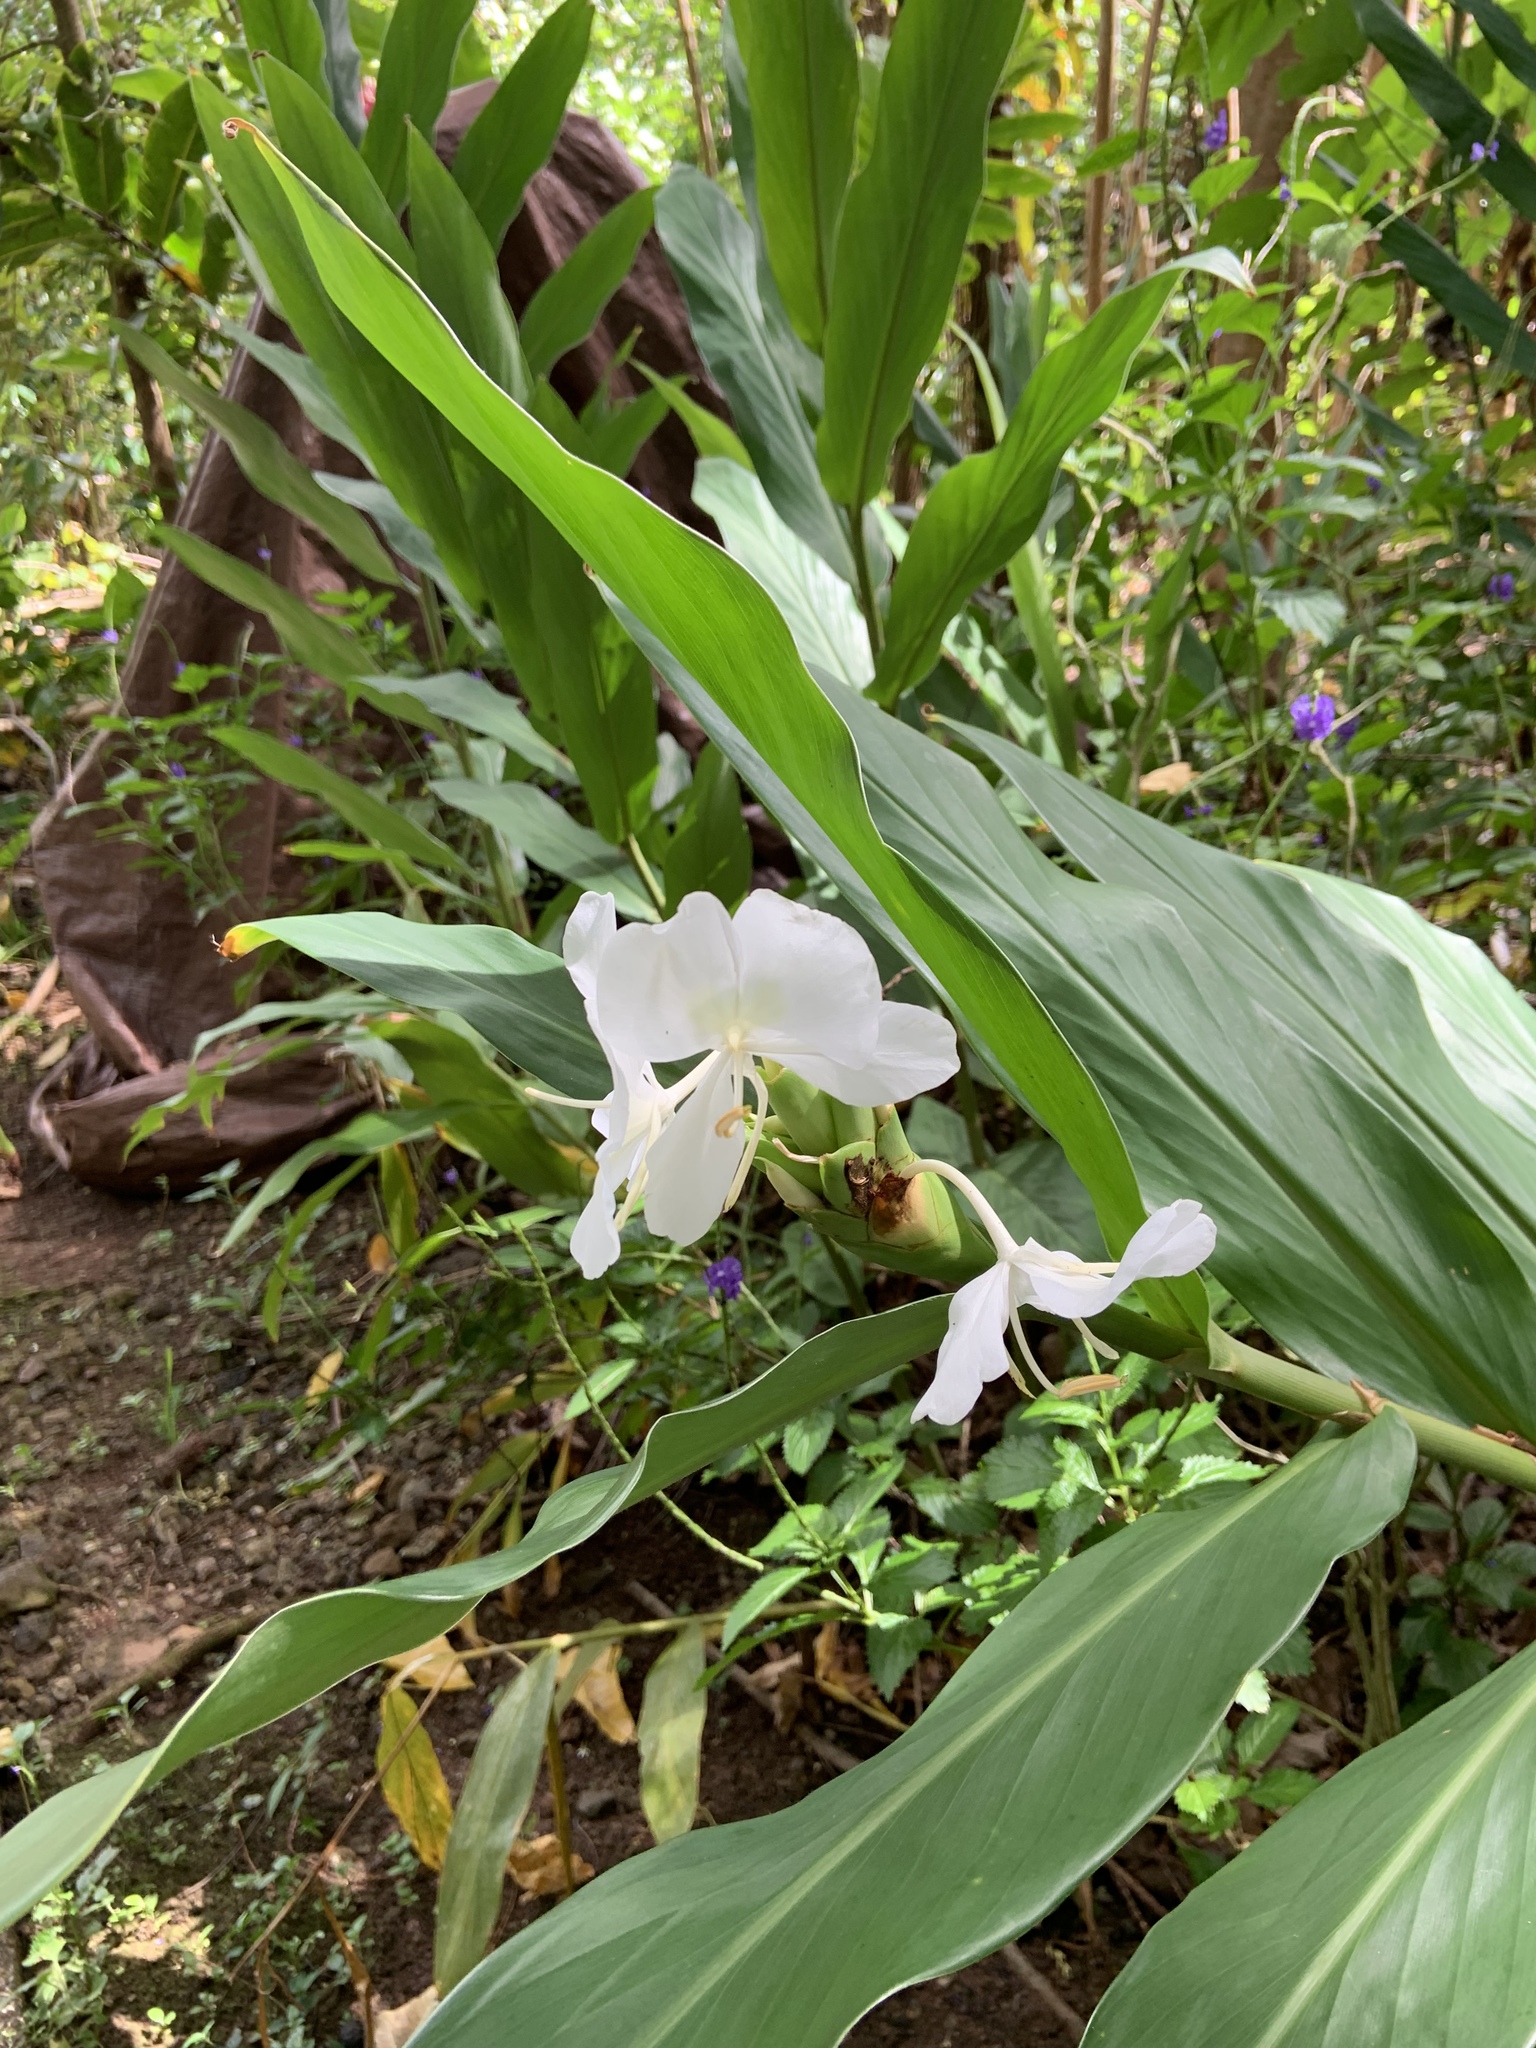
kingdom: Plantae
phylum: Tracheophyta
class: Liliopsida
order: Zingiberales
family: Zingiberaceae
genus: Hedychium
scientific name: Hedychium coronarium
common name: White garland-lily
